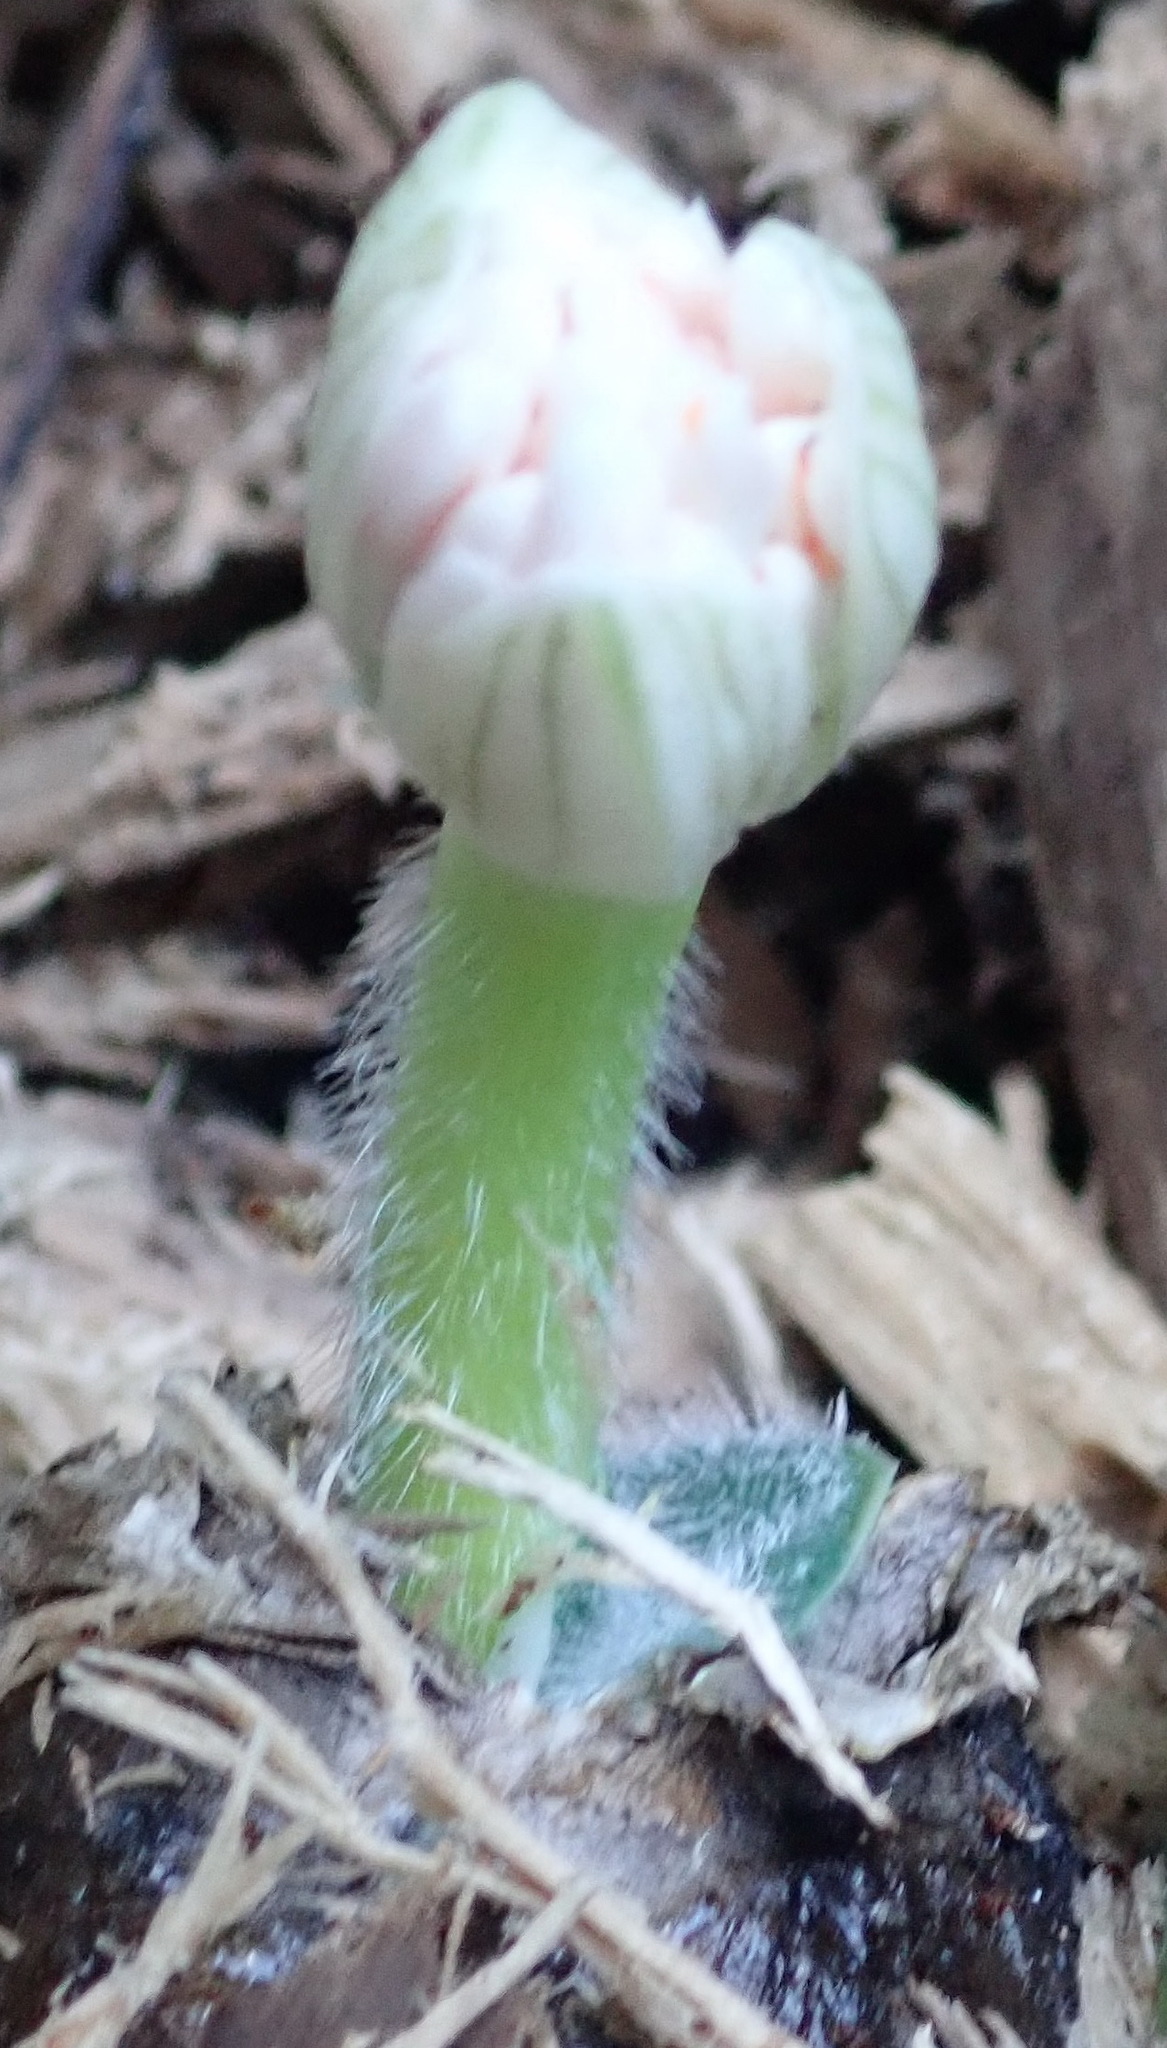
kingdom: Plantae
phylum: Tracheophyta
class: Liliopsida
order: Asparagales
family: Amaryllidaceae
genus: Haemanthus
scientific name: Haemanthus albiflos
